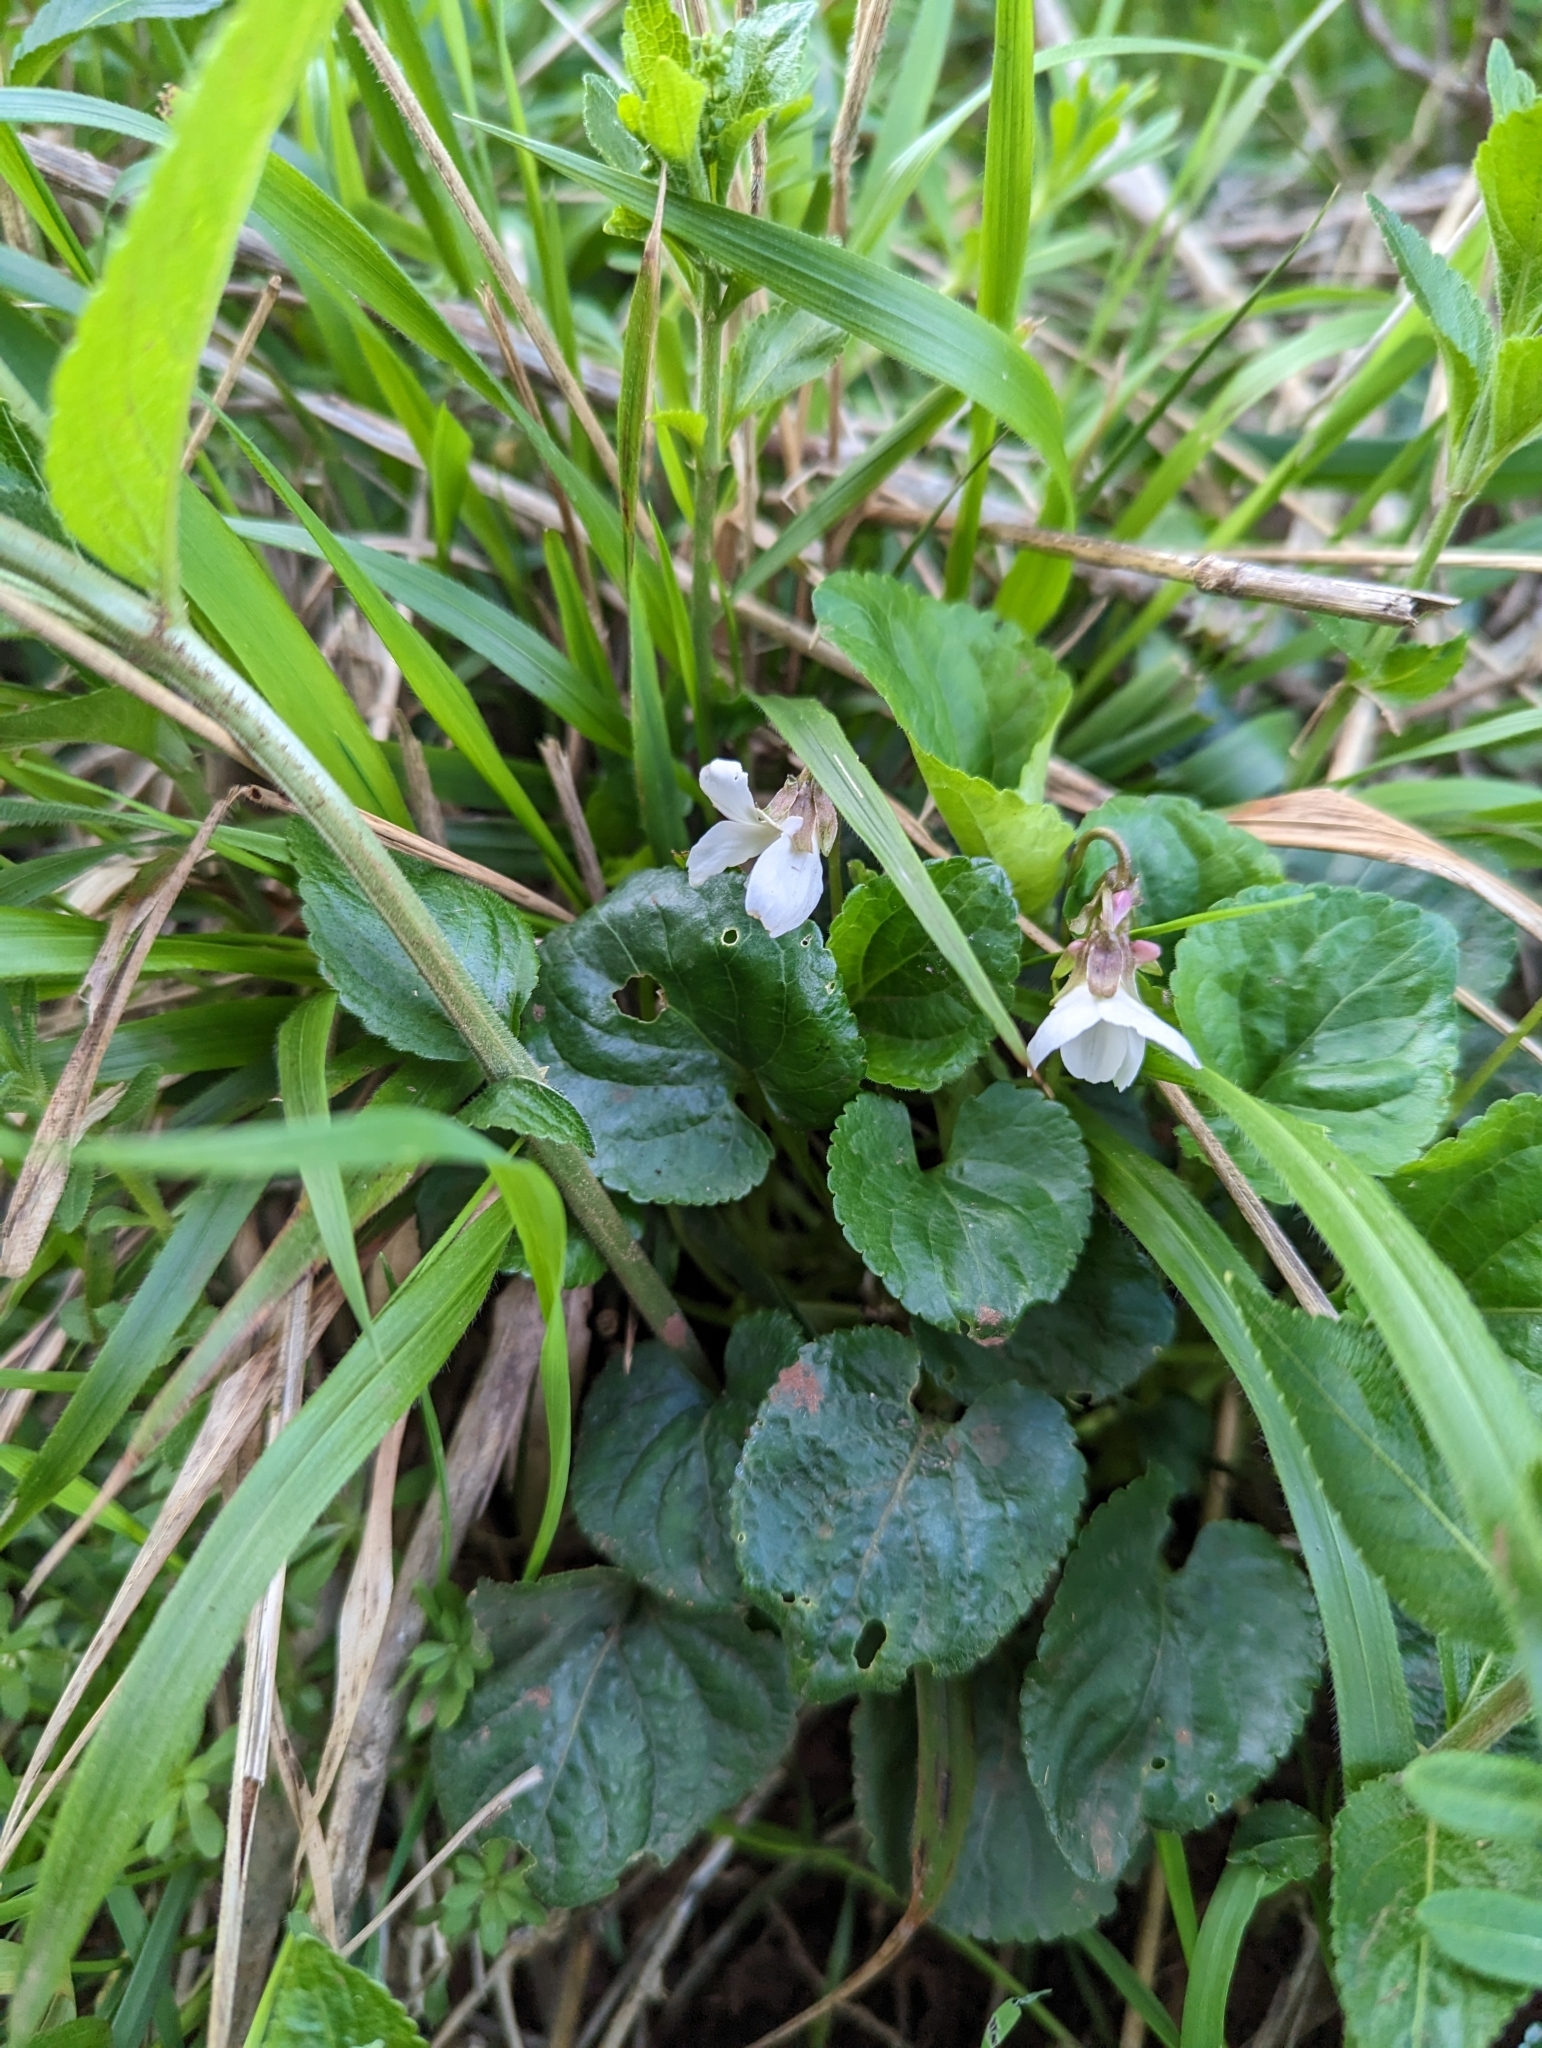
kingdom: Plantae
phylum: Tracheophyta
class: Magnoliopsida
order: Malpighiales
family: Violaceae
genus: Viola
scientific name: Viola odorata
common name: Sweet violet
